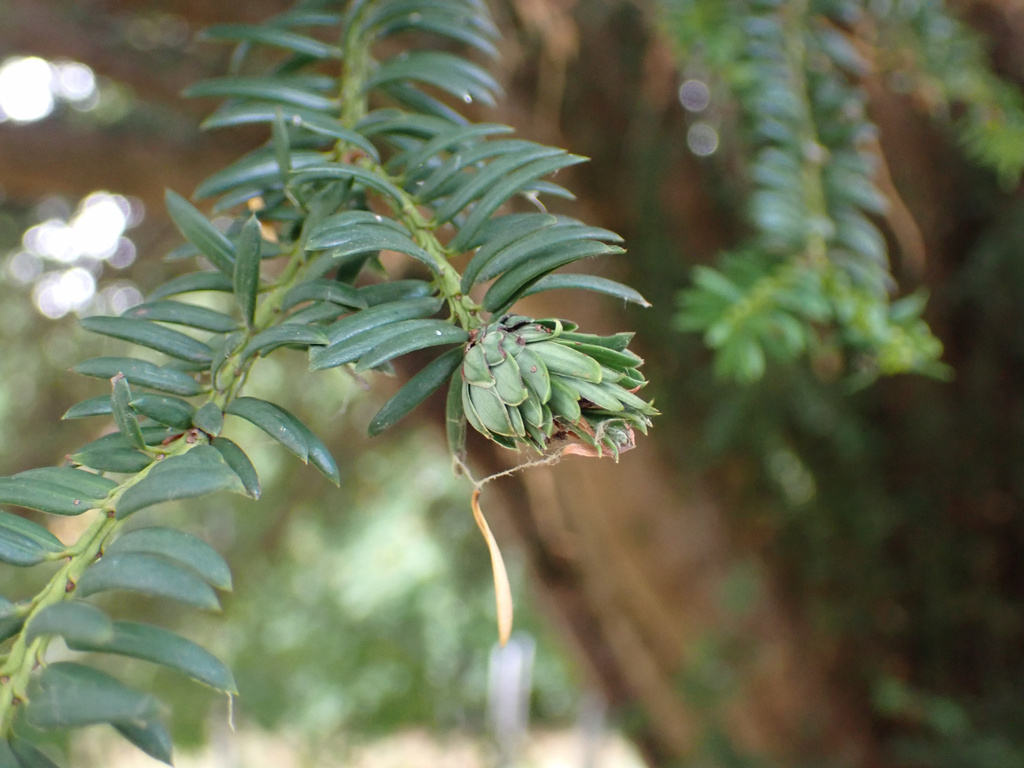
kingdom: Animalia
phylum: Arthropoda
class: Insecta
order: Diptera
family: Cecidomyiidae
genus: Taxomyia
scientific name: Taxomyia taxi
